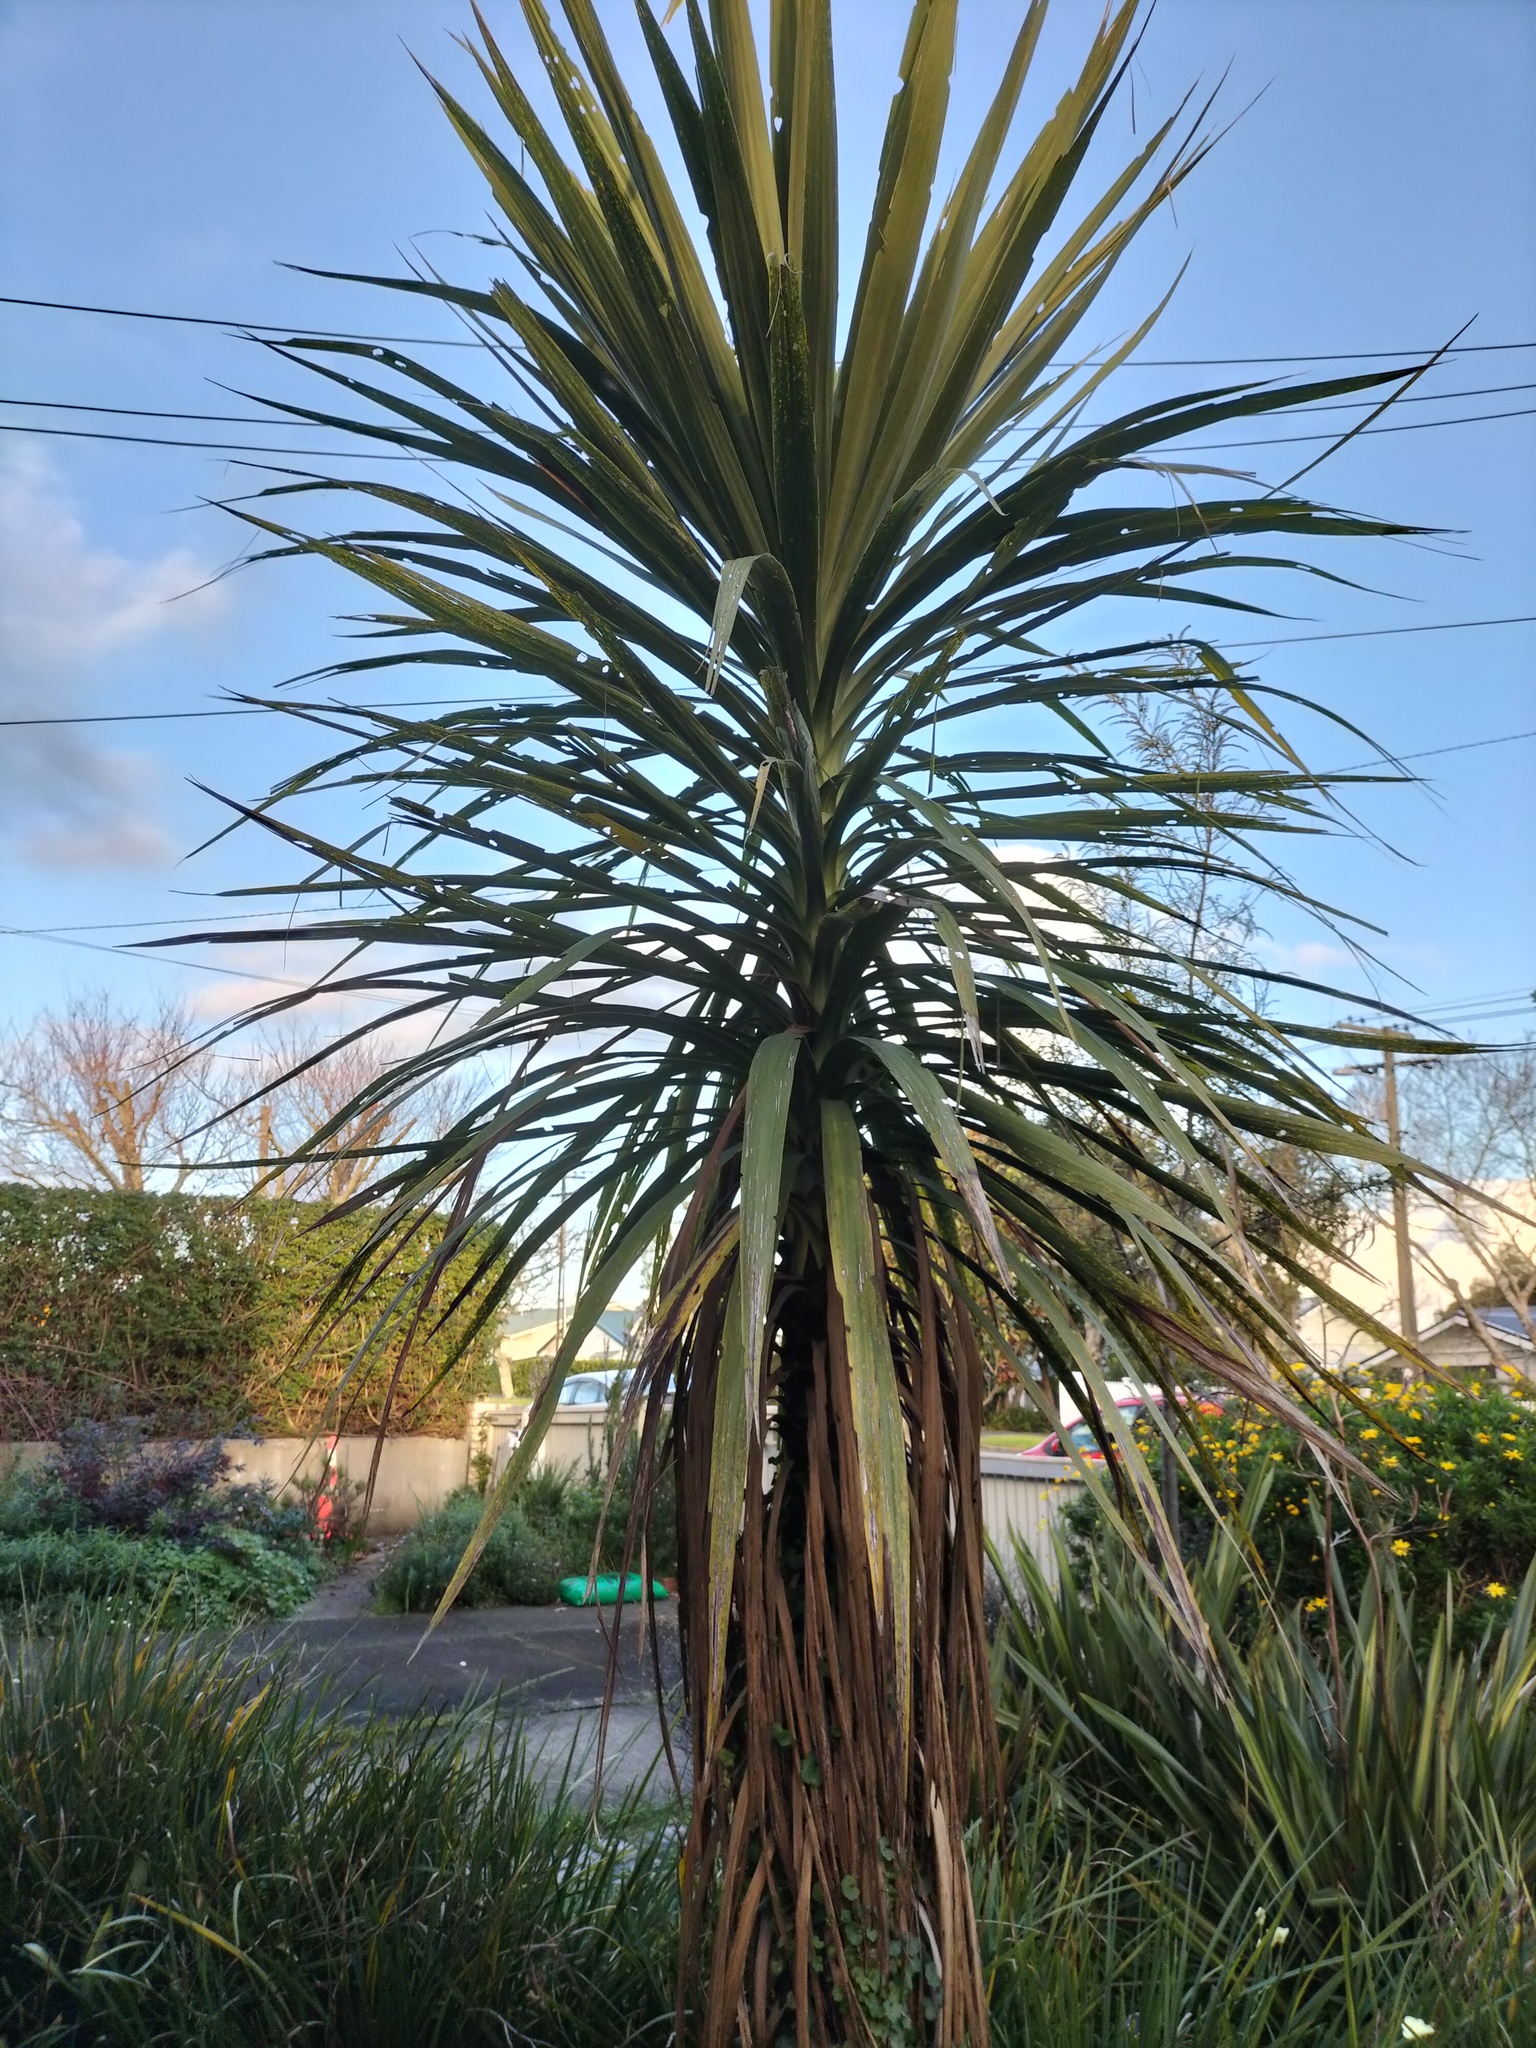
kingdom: Plantae
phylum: Tracheophyta
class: Liliopsida
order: Asparagales
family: Asparagaceae
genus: Cordyline
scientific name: Cordyline australis
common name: Cabbage-palm
